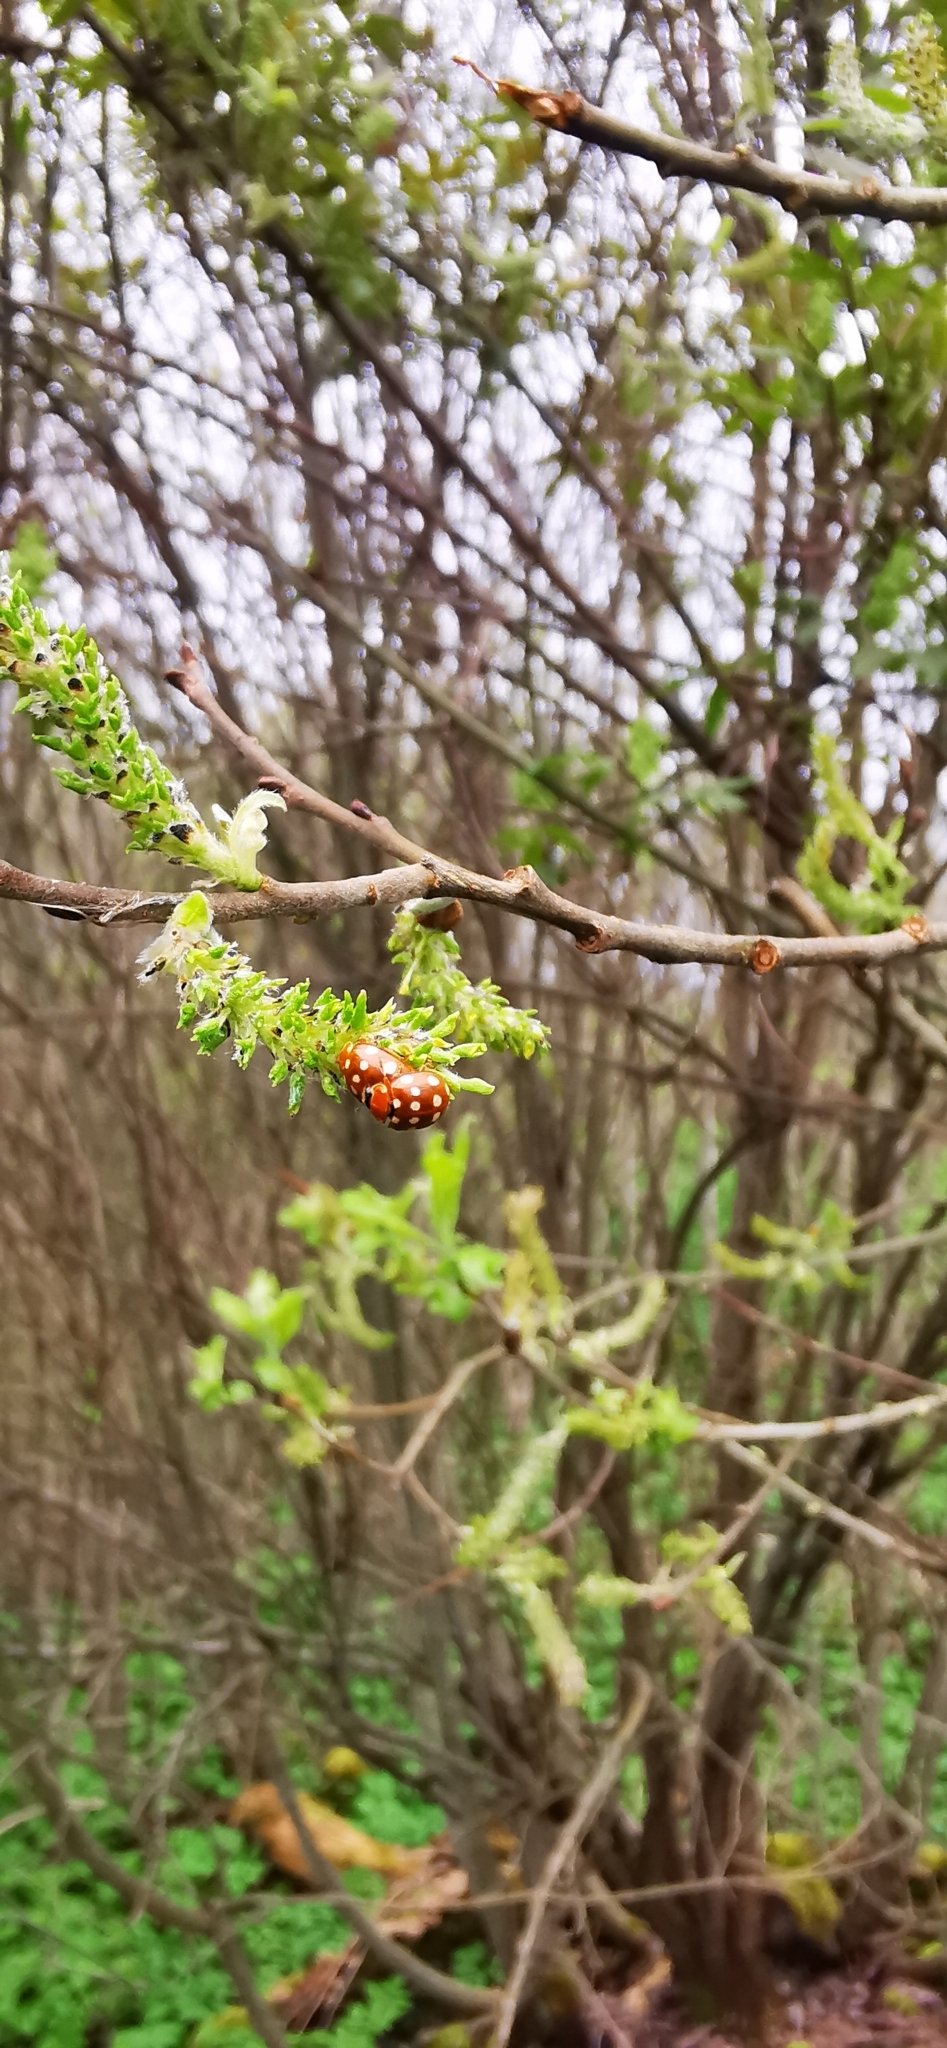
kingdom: Animalia
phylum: Arthropoda
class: Insecta
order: Coleoptera
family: Coccinellidae
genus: Calvia
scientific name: Calvia quatuordecimguttata
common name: Cream-spot ladybird
